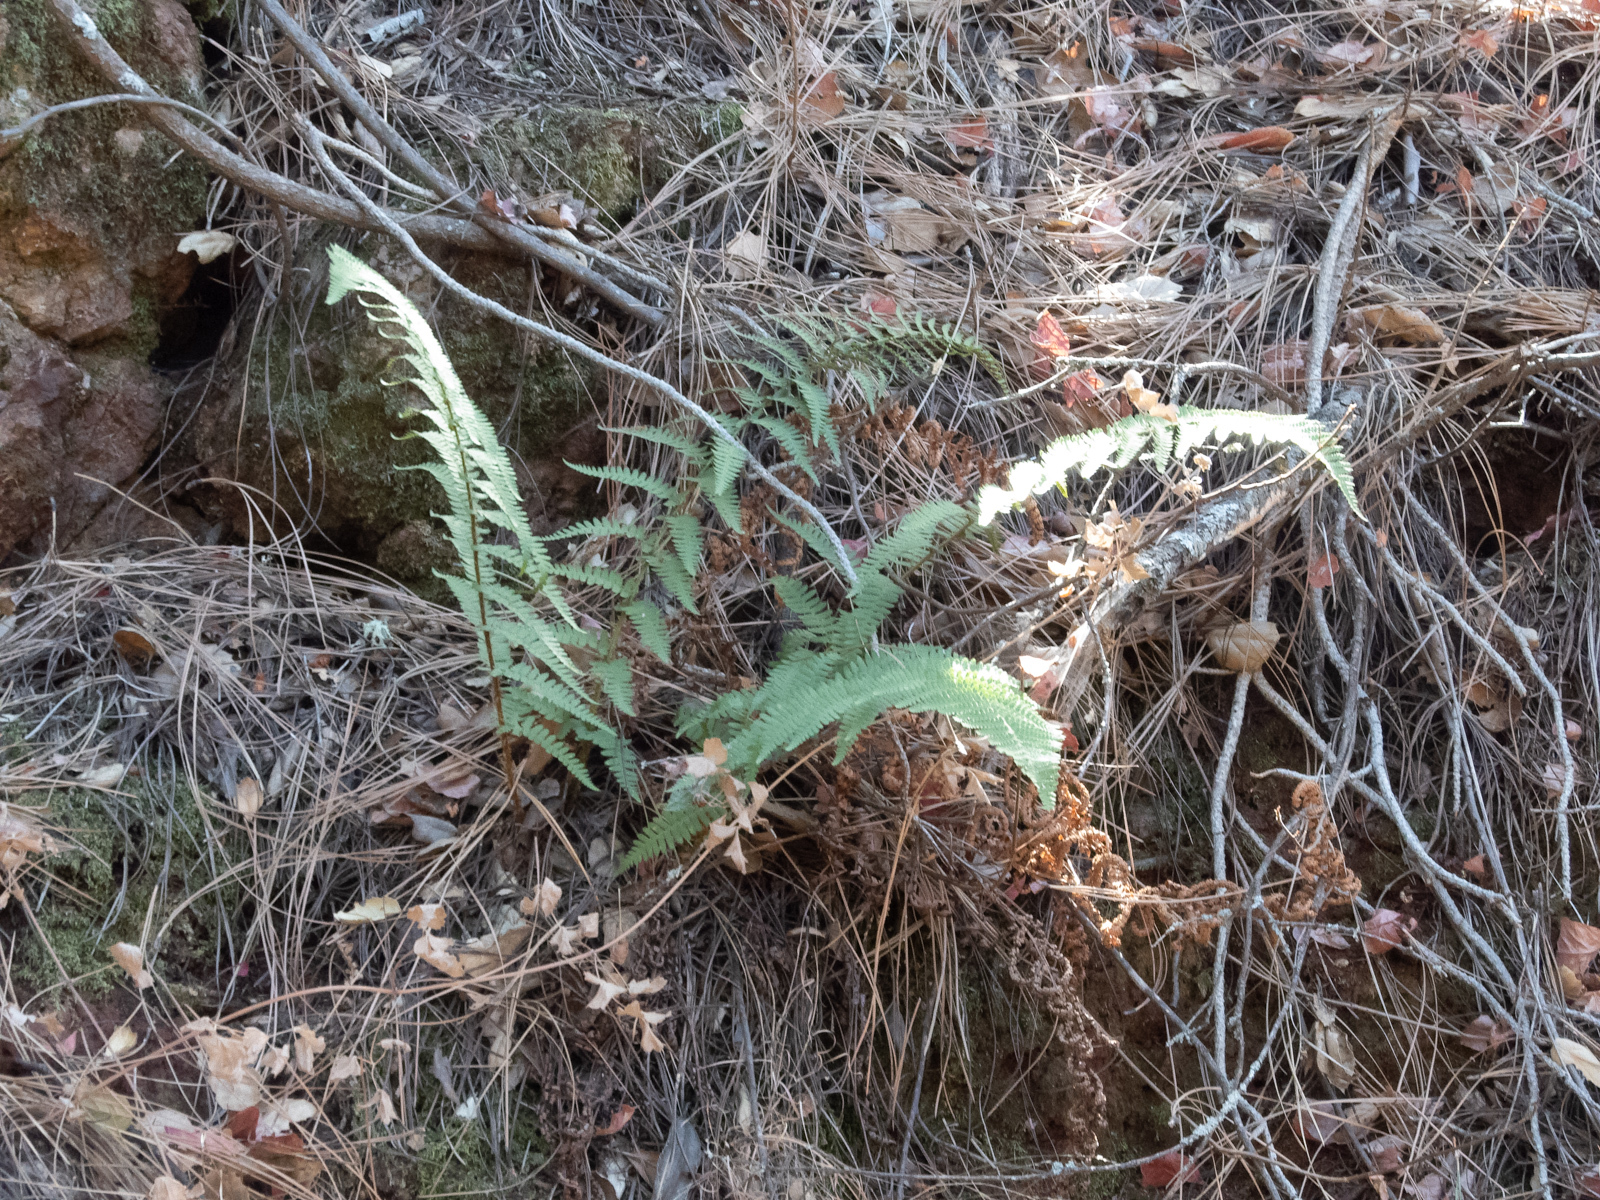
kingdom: Plantae
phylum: Tracheophyta
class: Polypodiopsida
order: Polypodiales
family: Dryopteridaceae
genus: Dryopteris
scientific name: Dryopteris arguta
